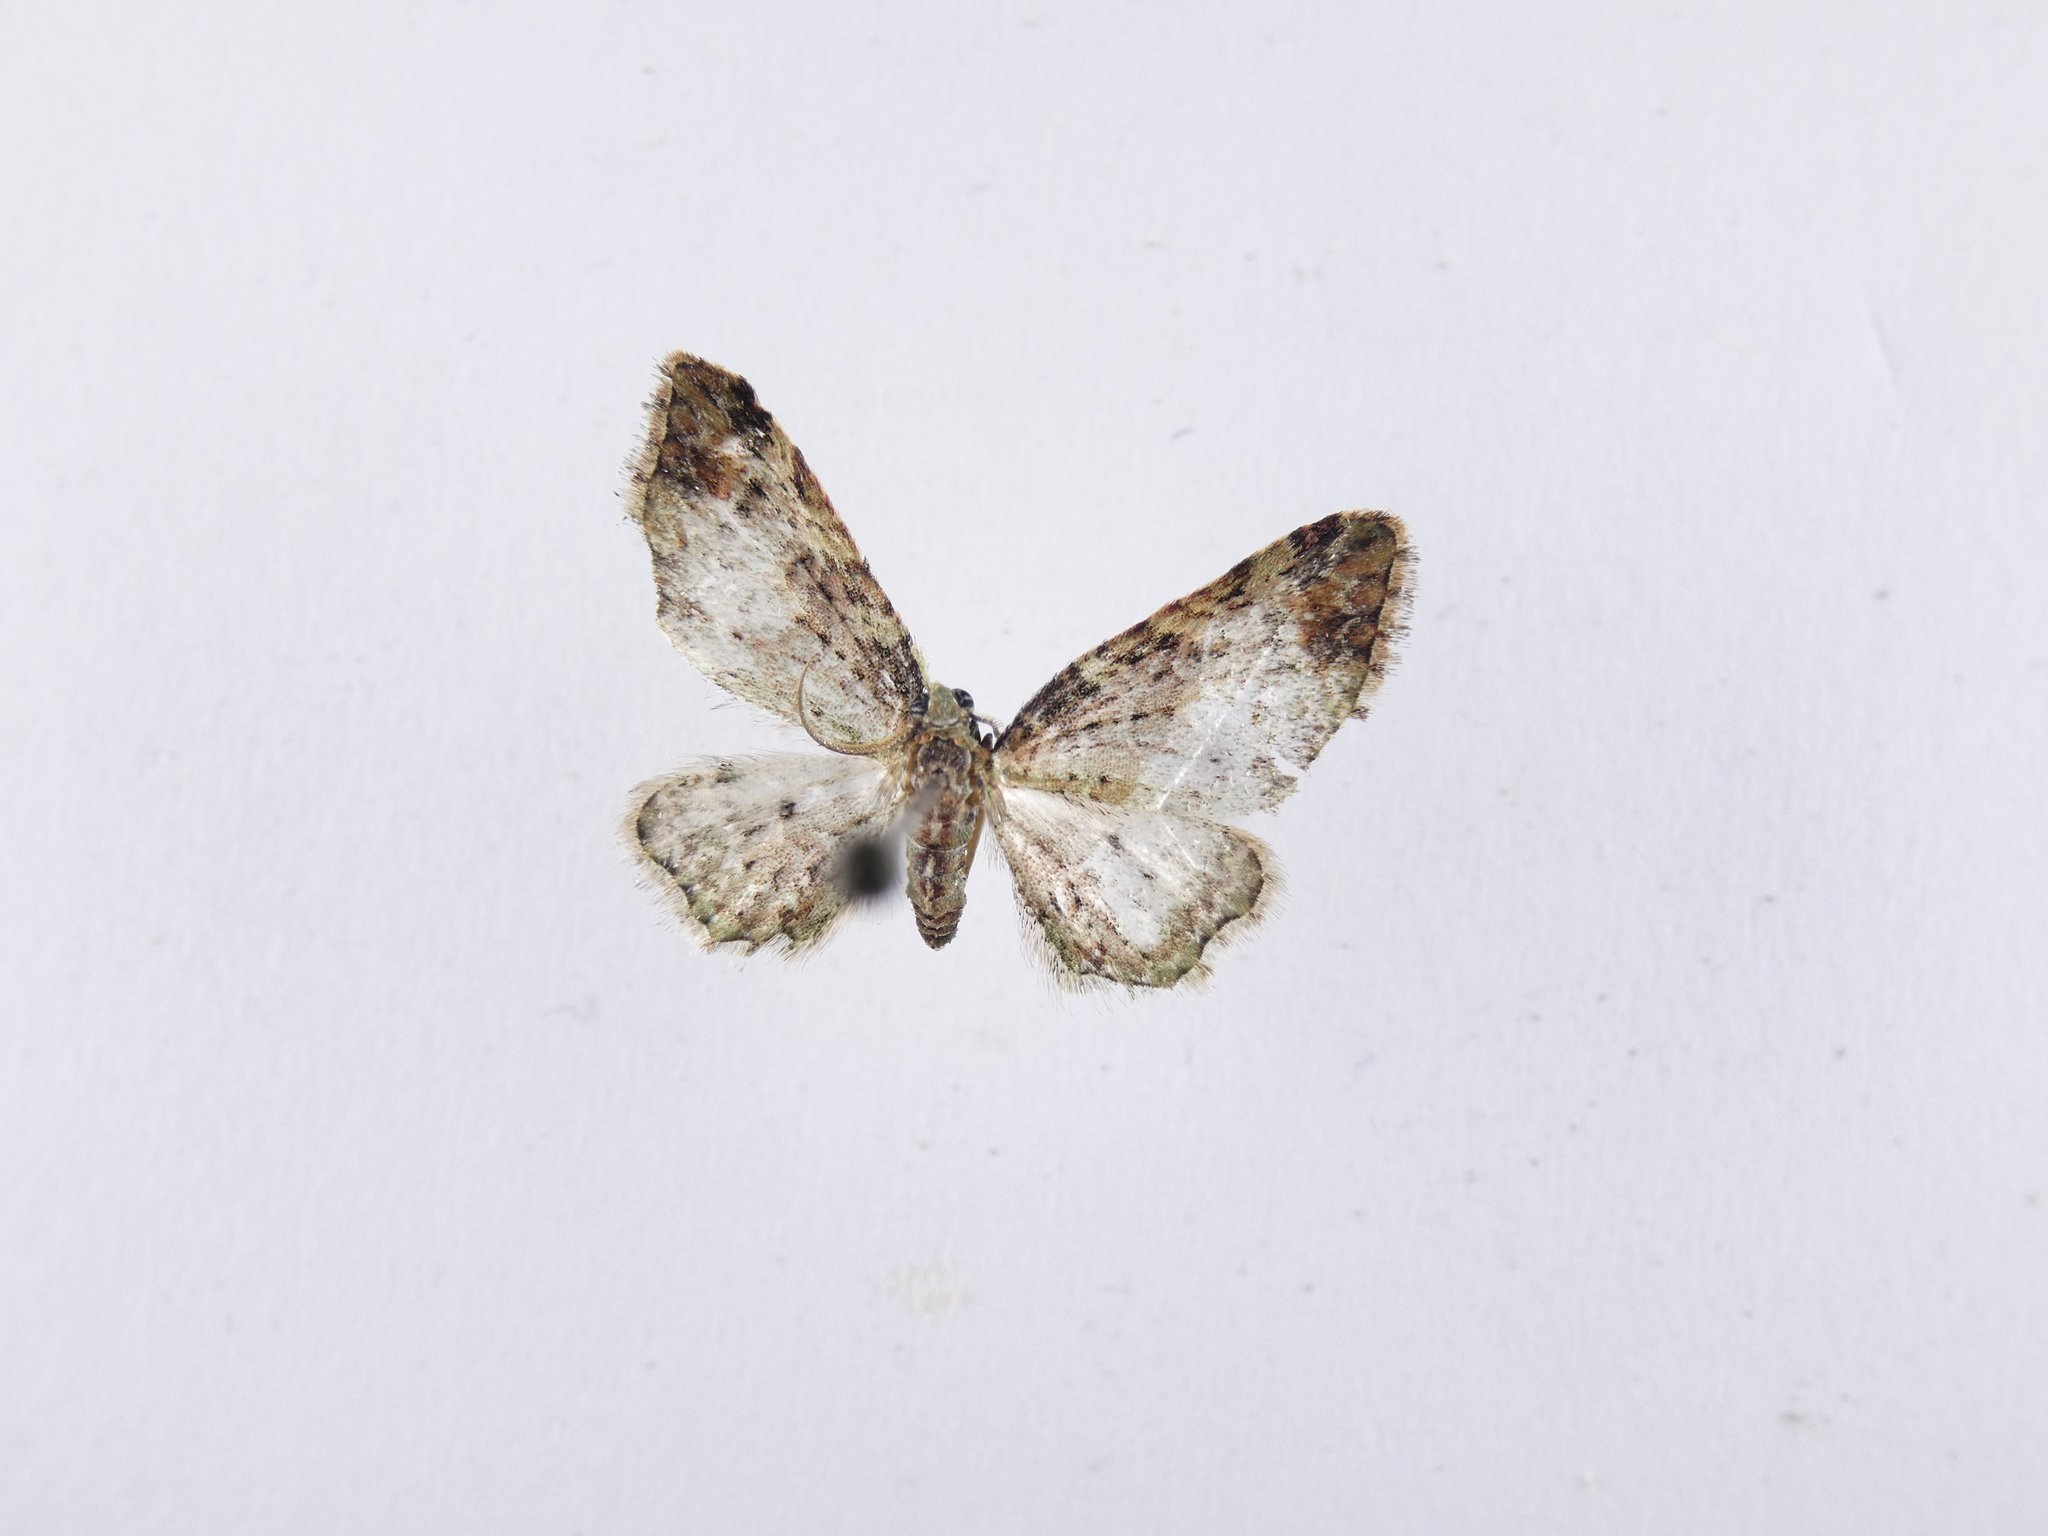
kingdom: Animalia
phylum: Arthropoda
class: Insecta
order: Lepidoptera
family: Geometridae
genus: Pasiphila
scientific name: Pasiphila plinthina
